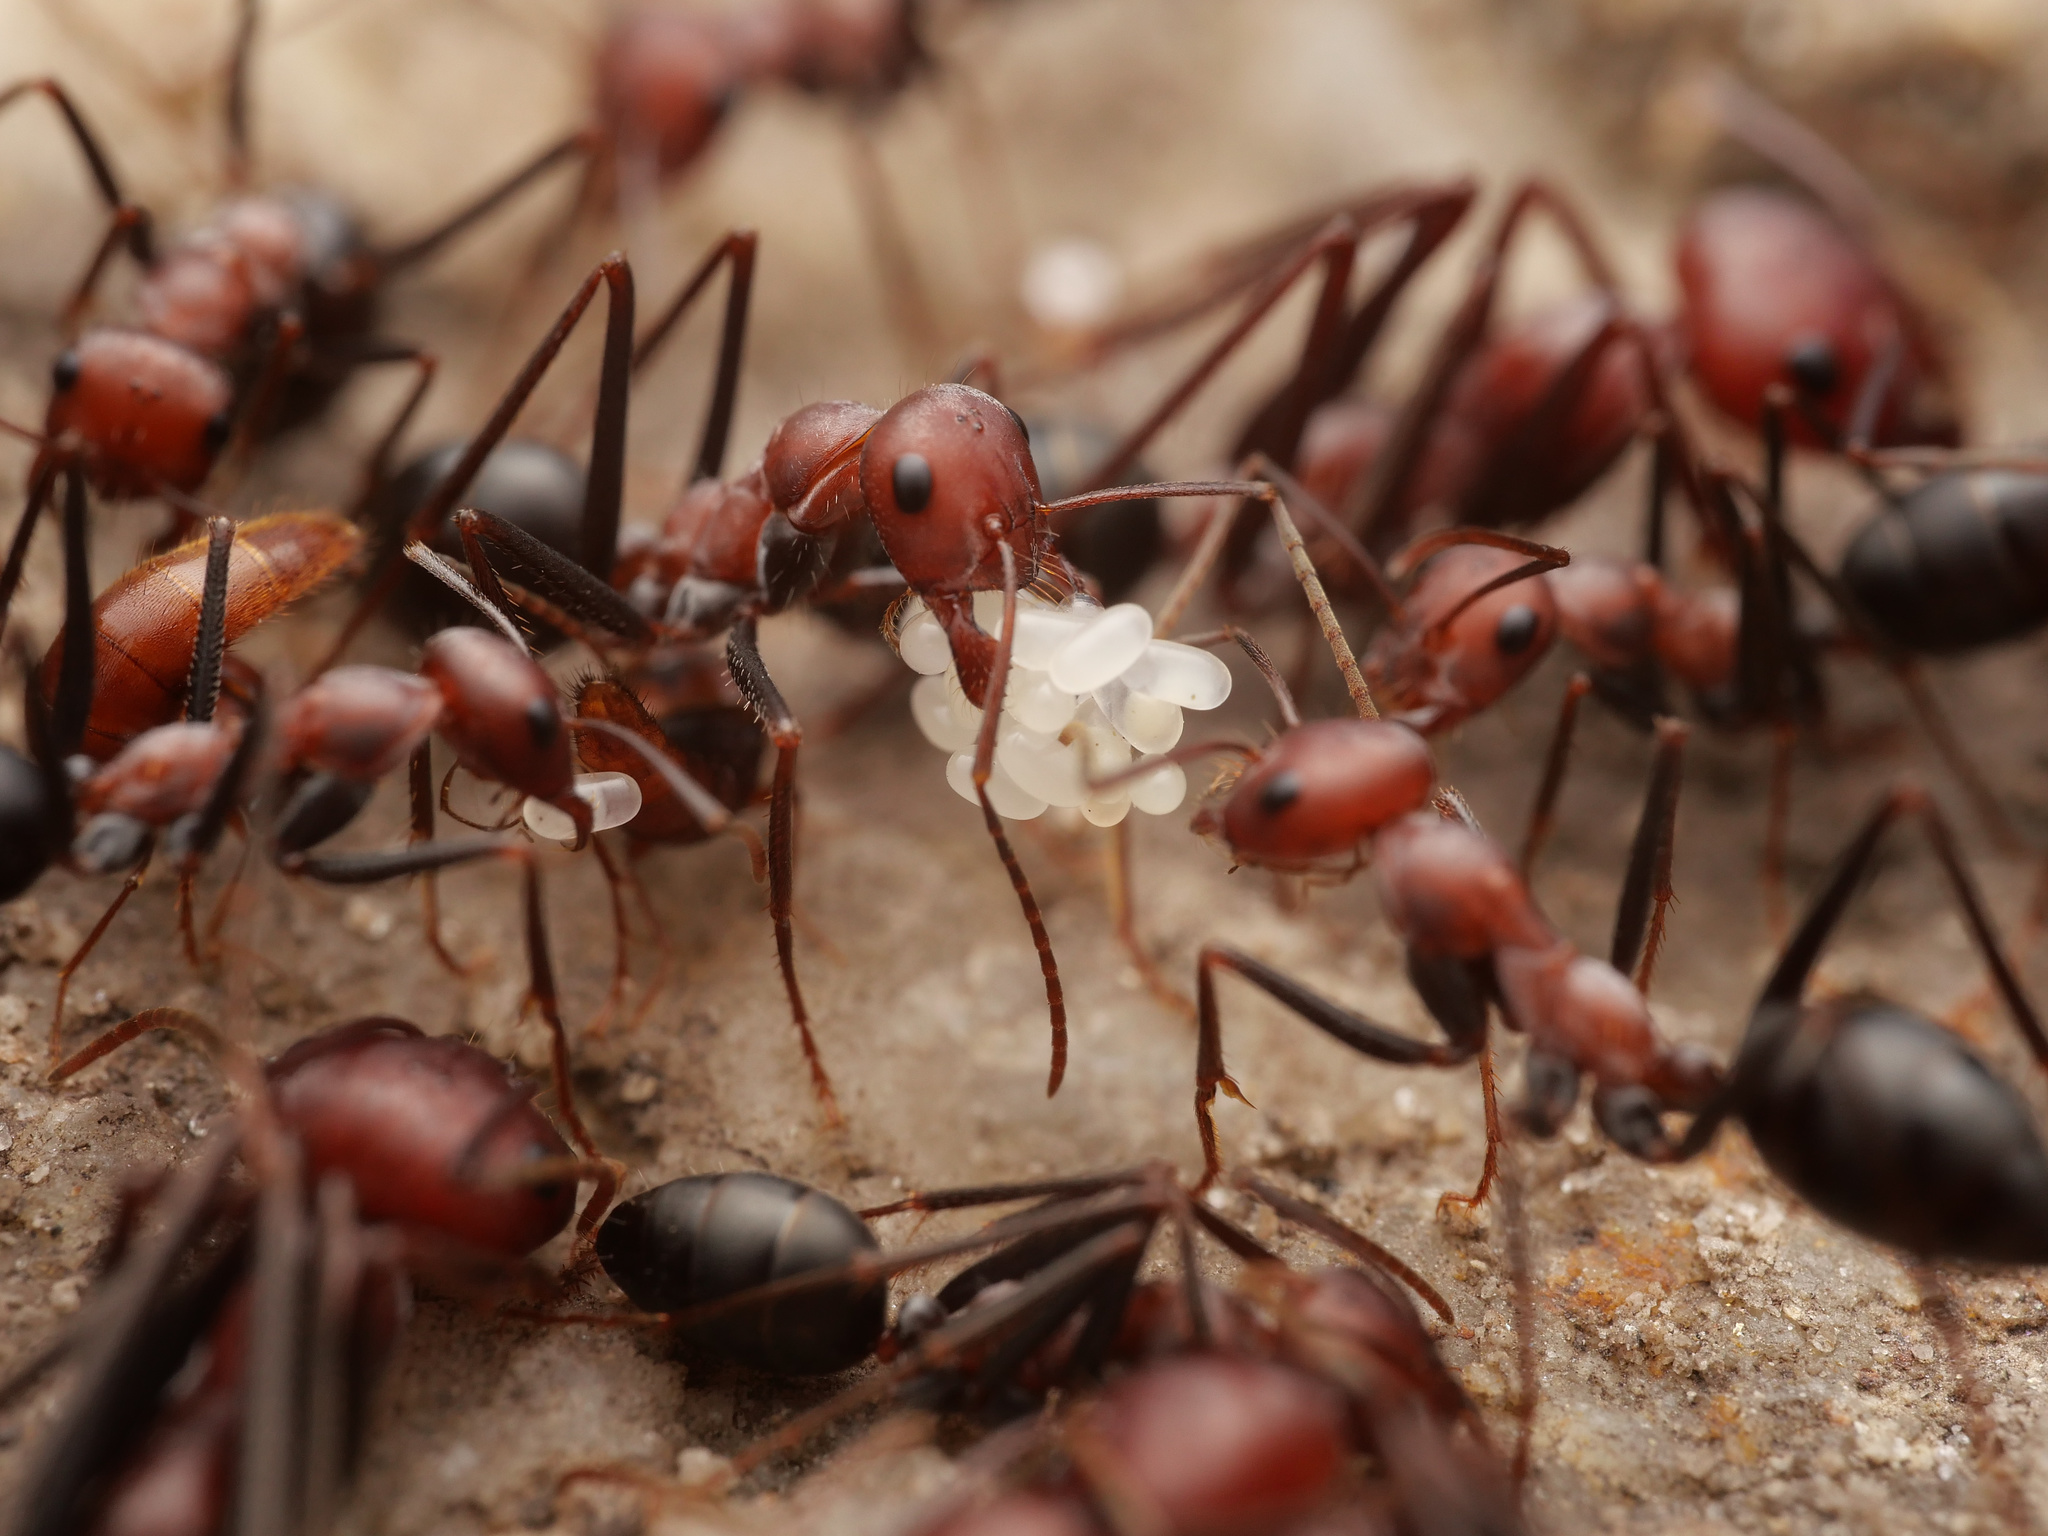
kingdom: Animalia
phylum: Arthropoda
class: Insecta
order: Hymenoptera
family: Formicidae
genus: Cataglyphis
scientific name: Cataglyphis nodus
